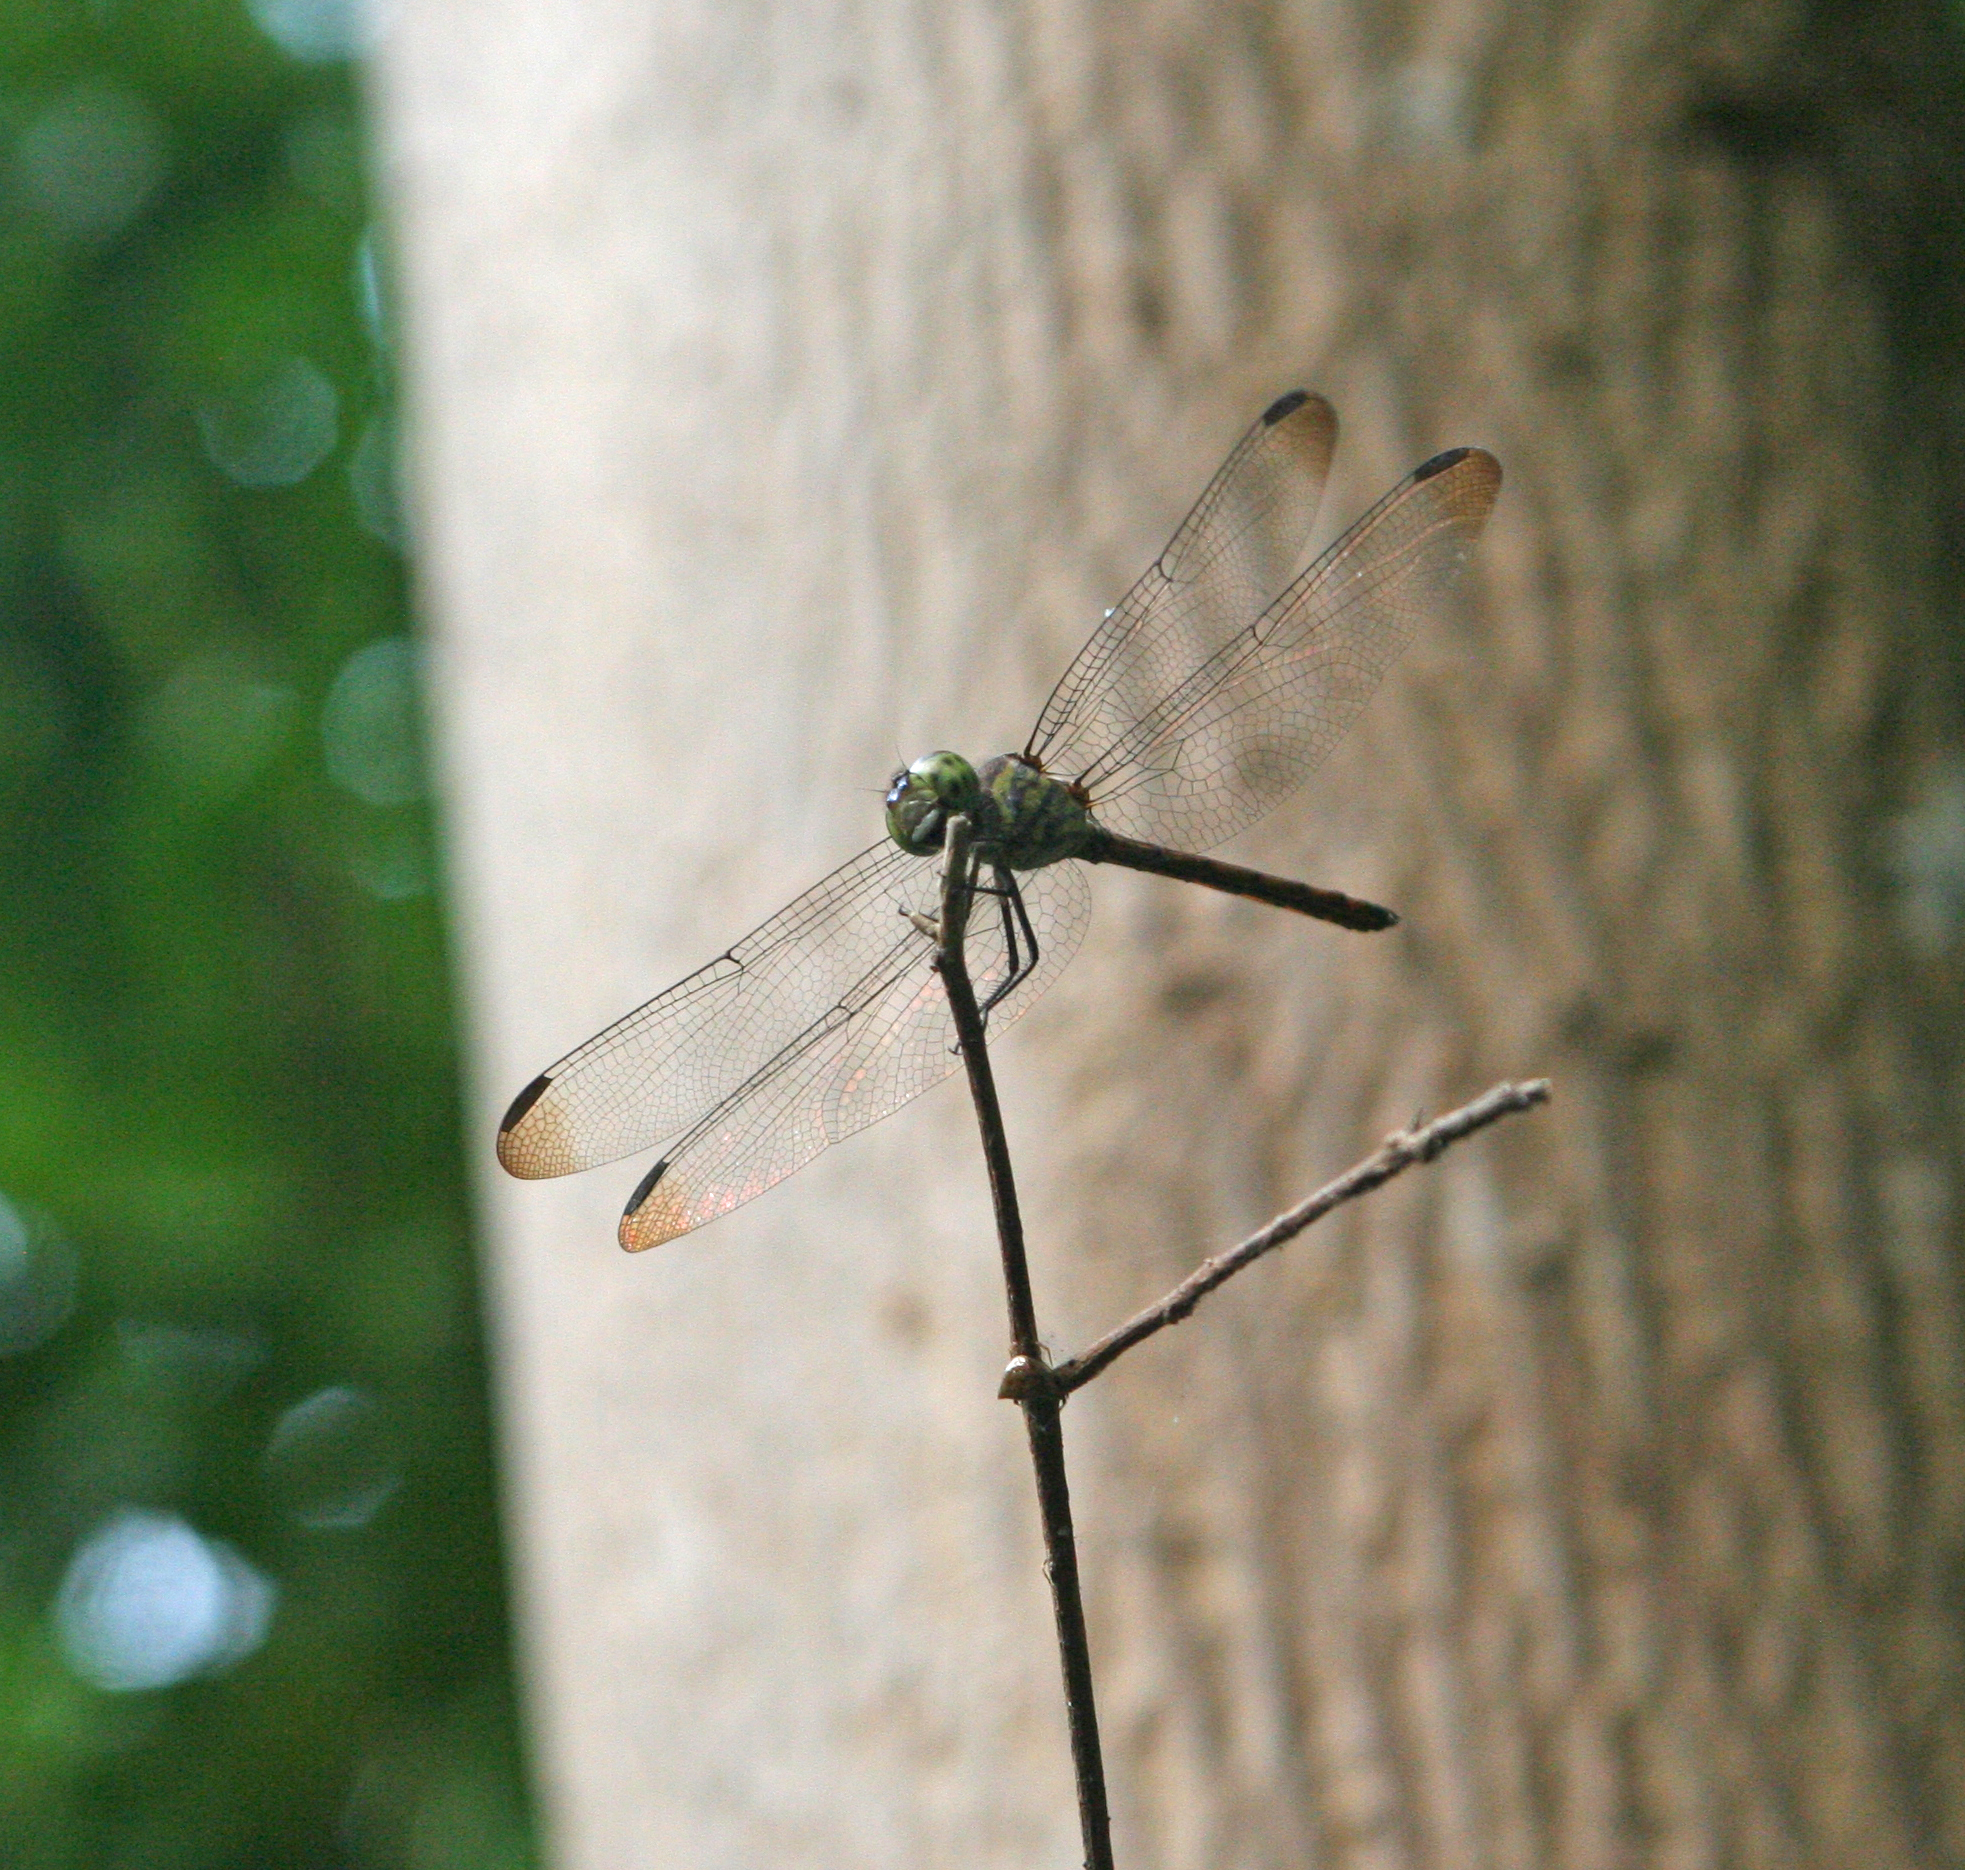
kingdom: Animalia
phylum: Arthropoda
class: Insecta
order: Odonata
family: Libellulidae
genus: Lathrecista
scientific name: Lathrecista asiatica
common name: Scarlet grenadier
